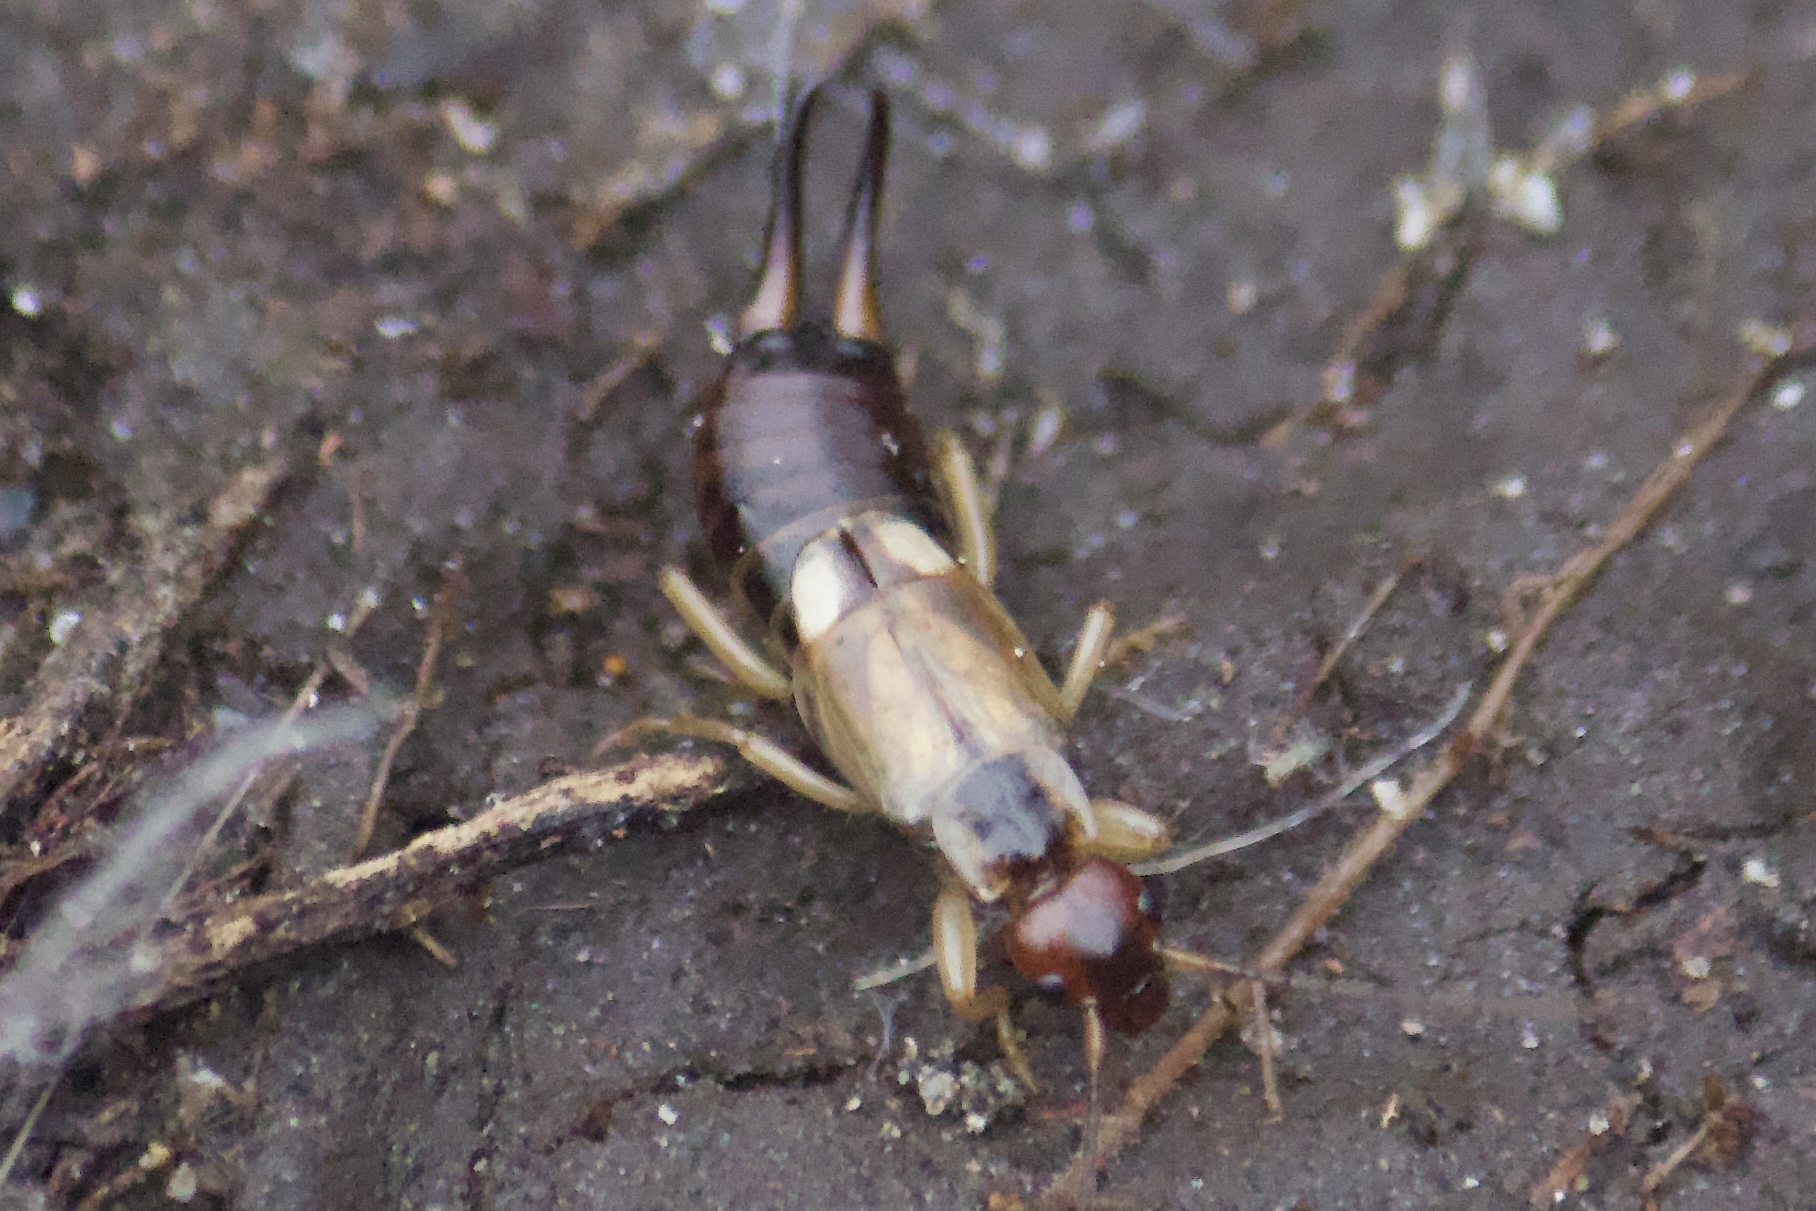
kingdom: Animalia
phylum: Arthropoda
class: Insecta
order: Dermaptera
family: Forficulidae
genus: Forficula
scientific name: Forficula
